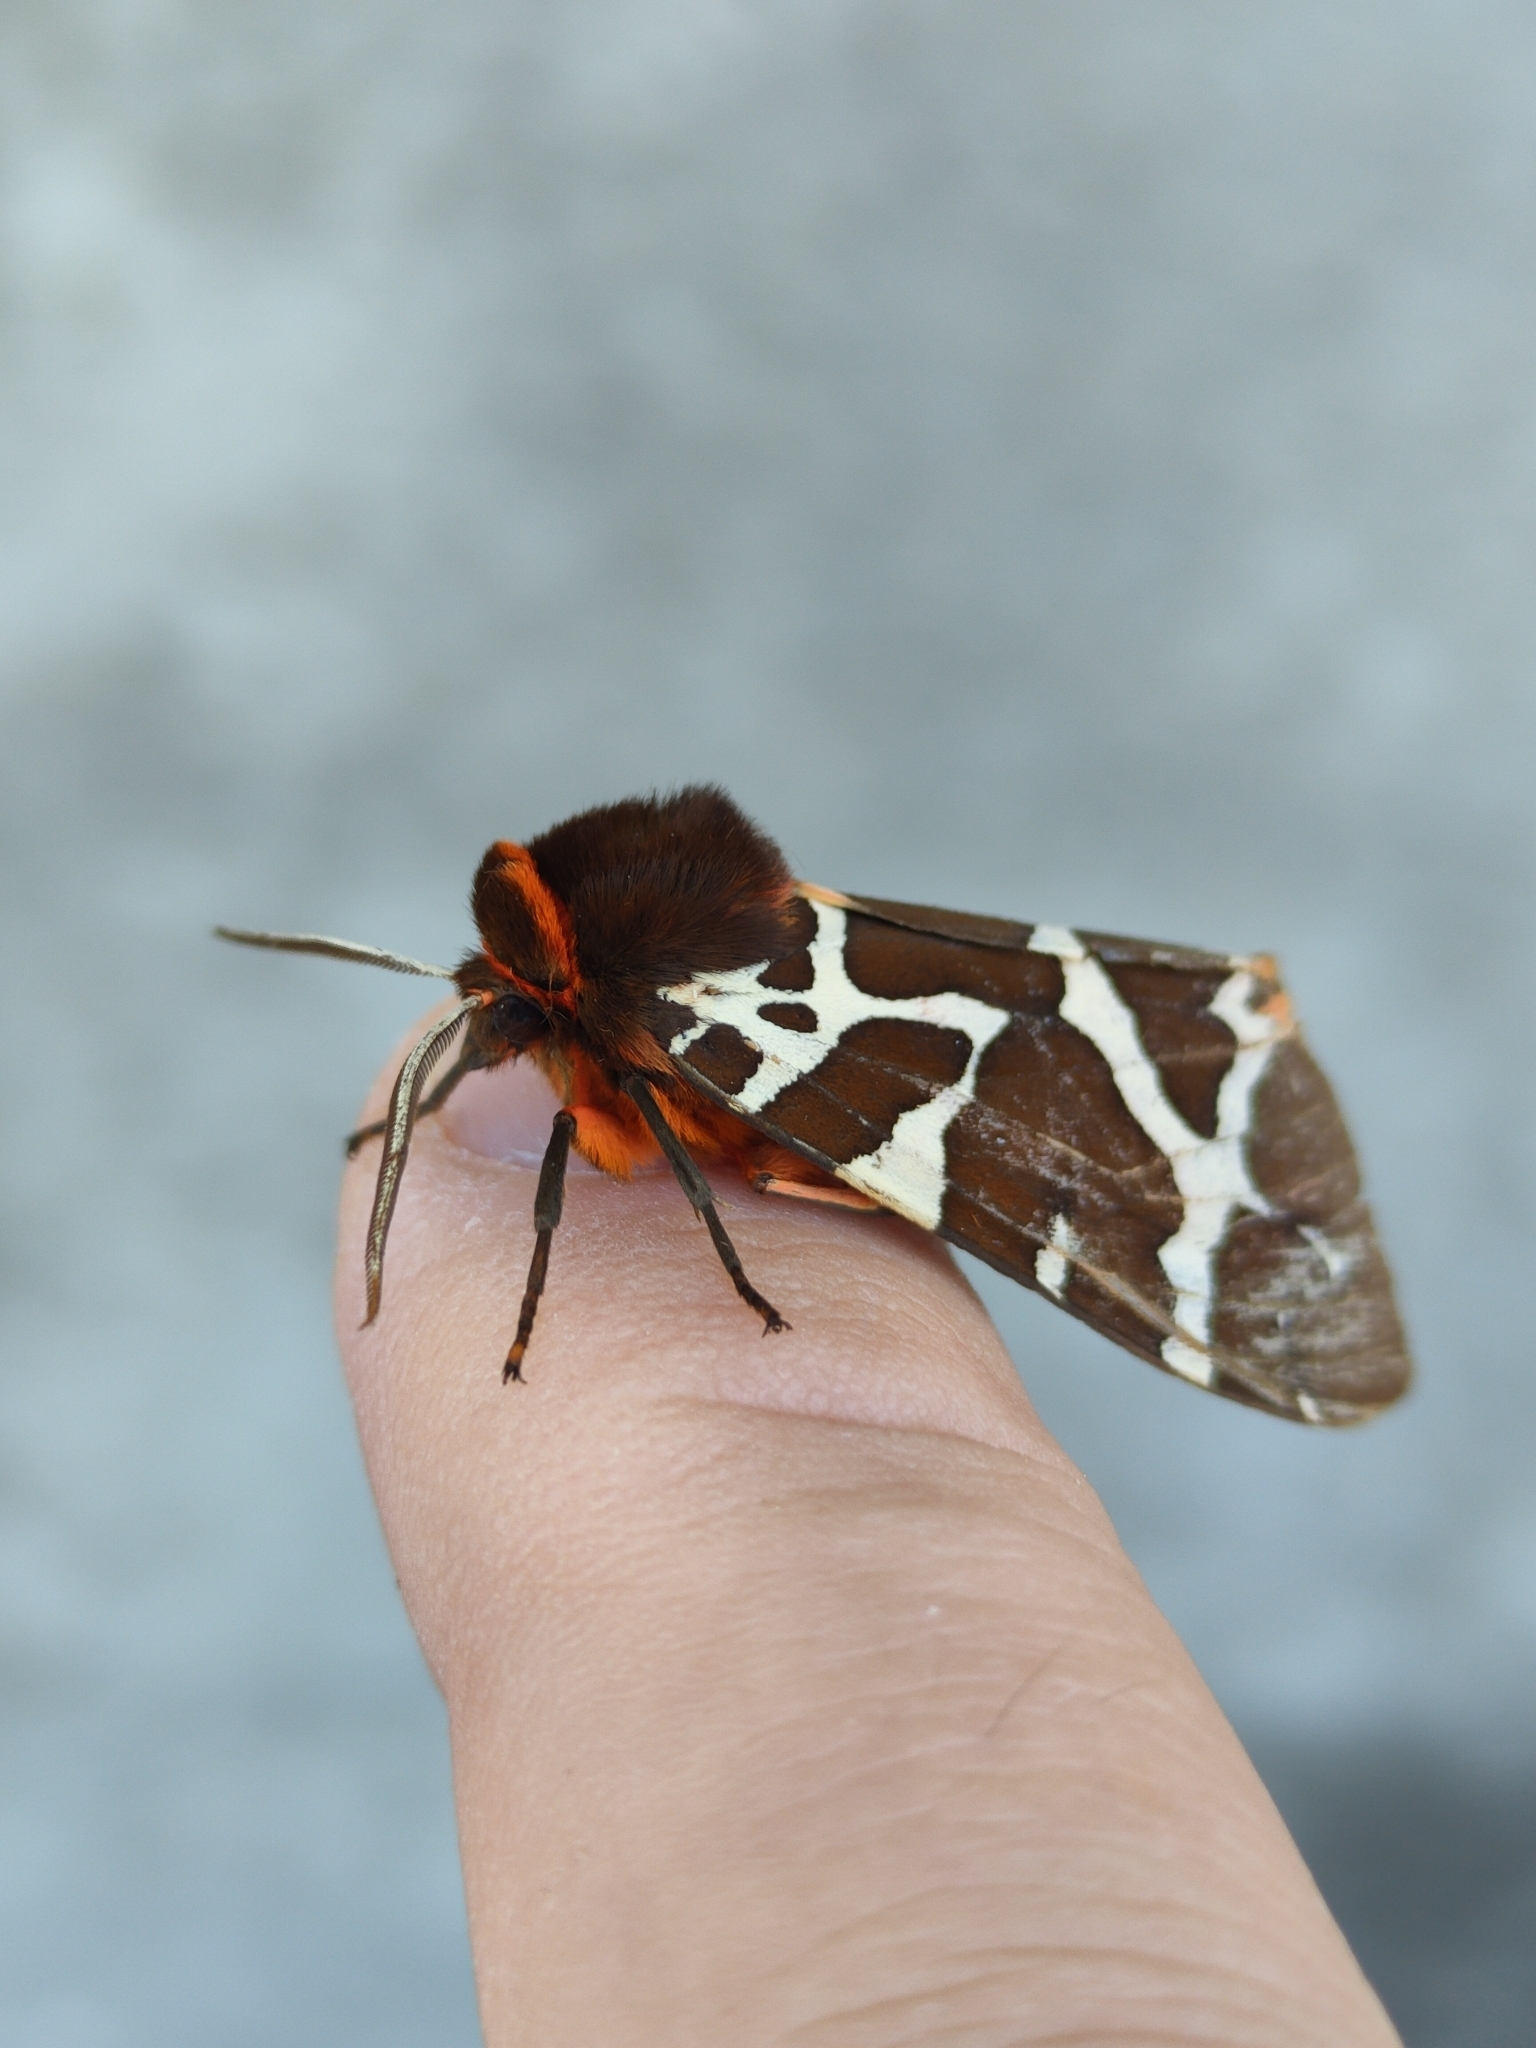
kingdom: Animalia
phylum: Arthropoda
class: Insecta
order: Lepidoptera
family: Erebidae
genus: Arctia
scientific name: Arctia caja
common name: Garden tiger
